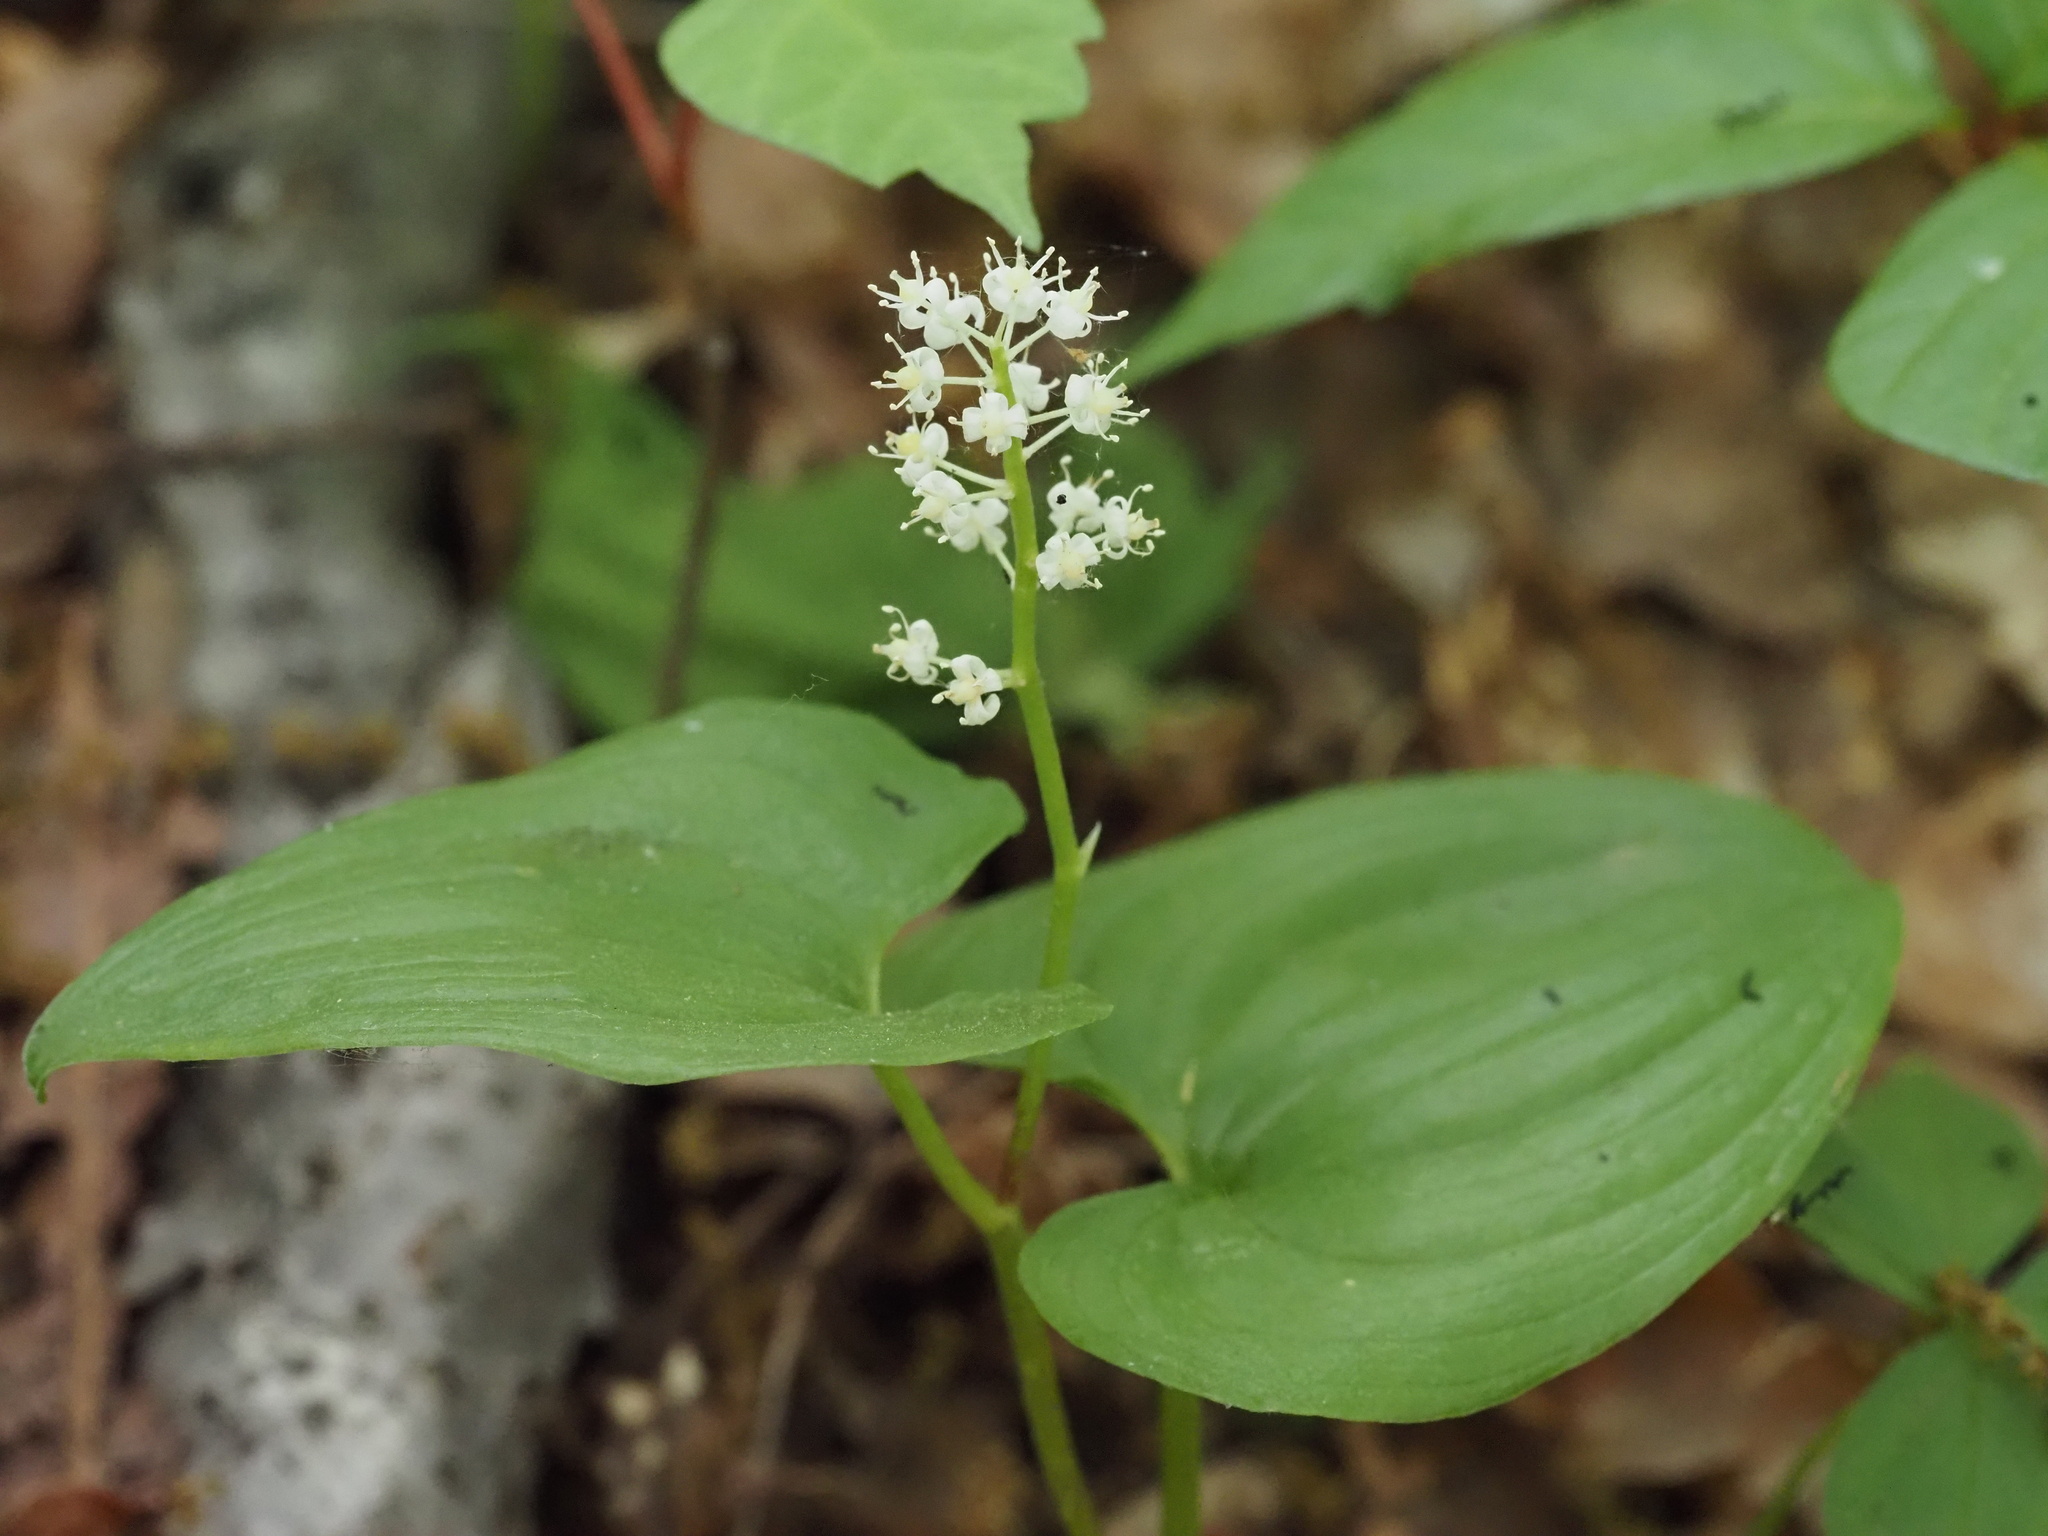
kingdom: Plantae
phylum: Tracheophyta
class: Liliopsida
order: Asparagales
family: Asparagaceae
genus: Maianthemum
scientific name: Maianthemum dilatatum
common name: False lily-of-the-valley
